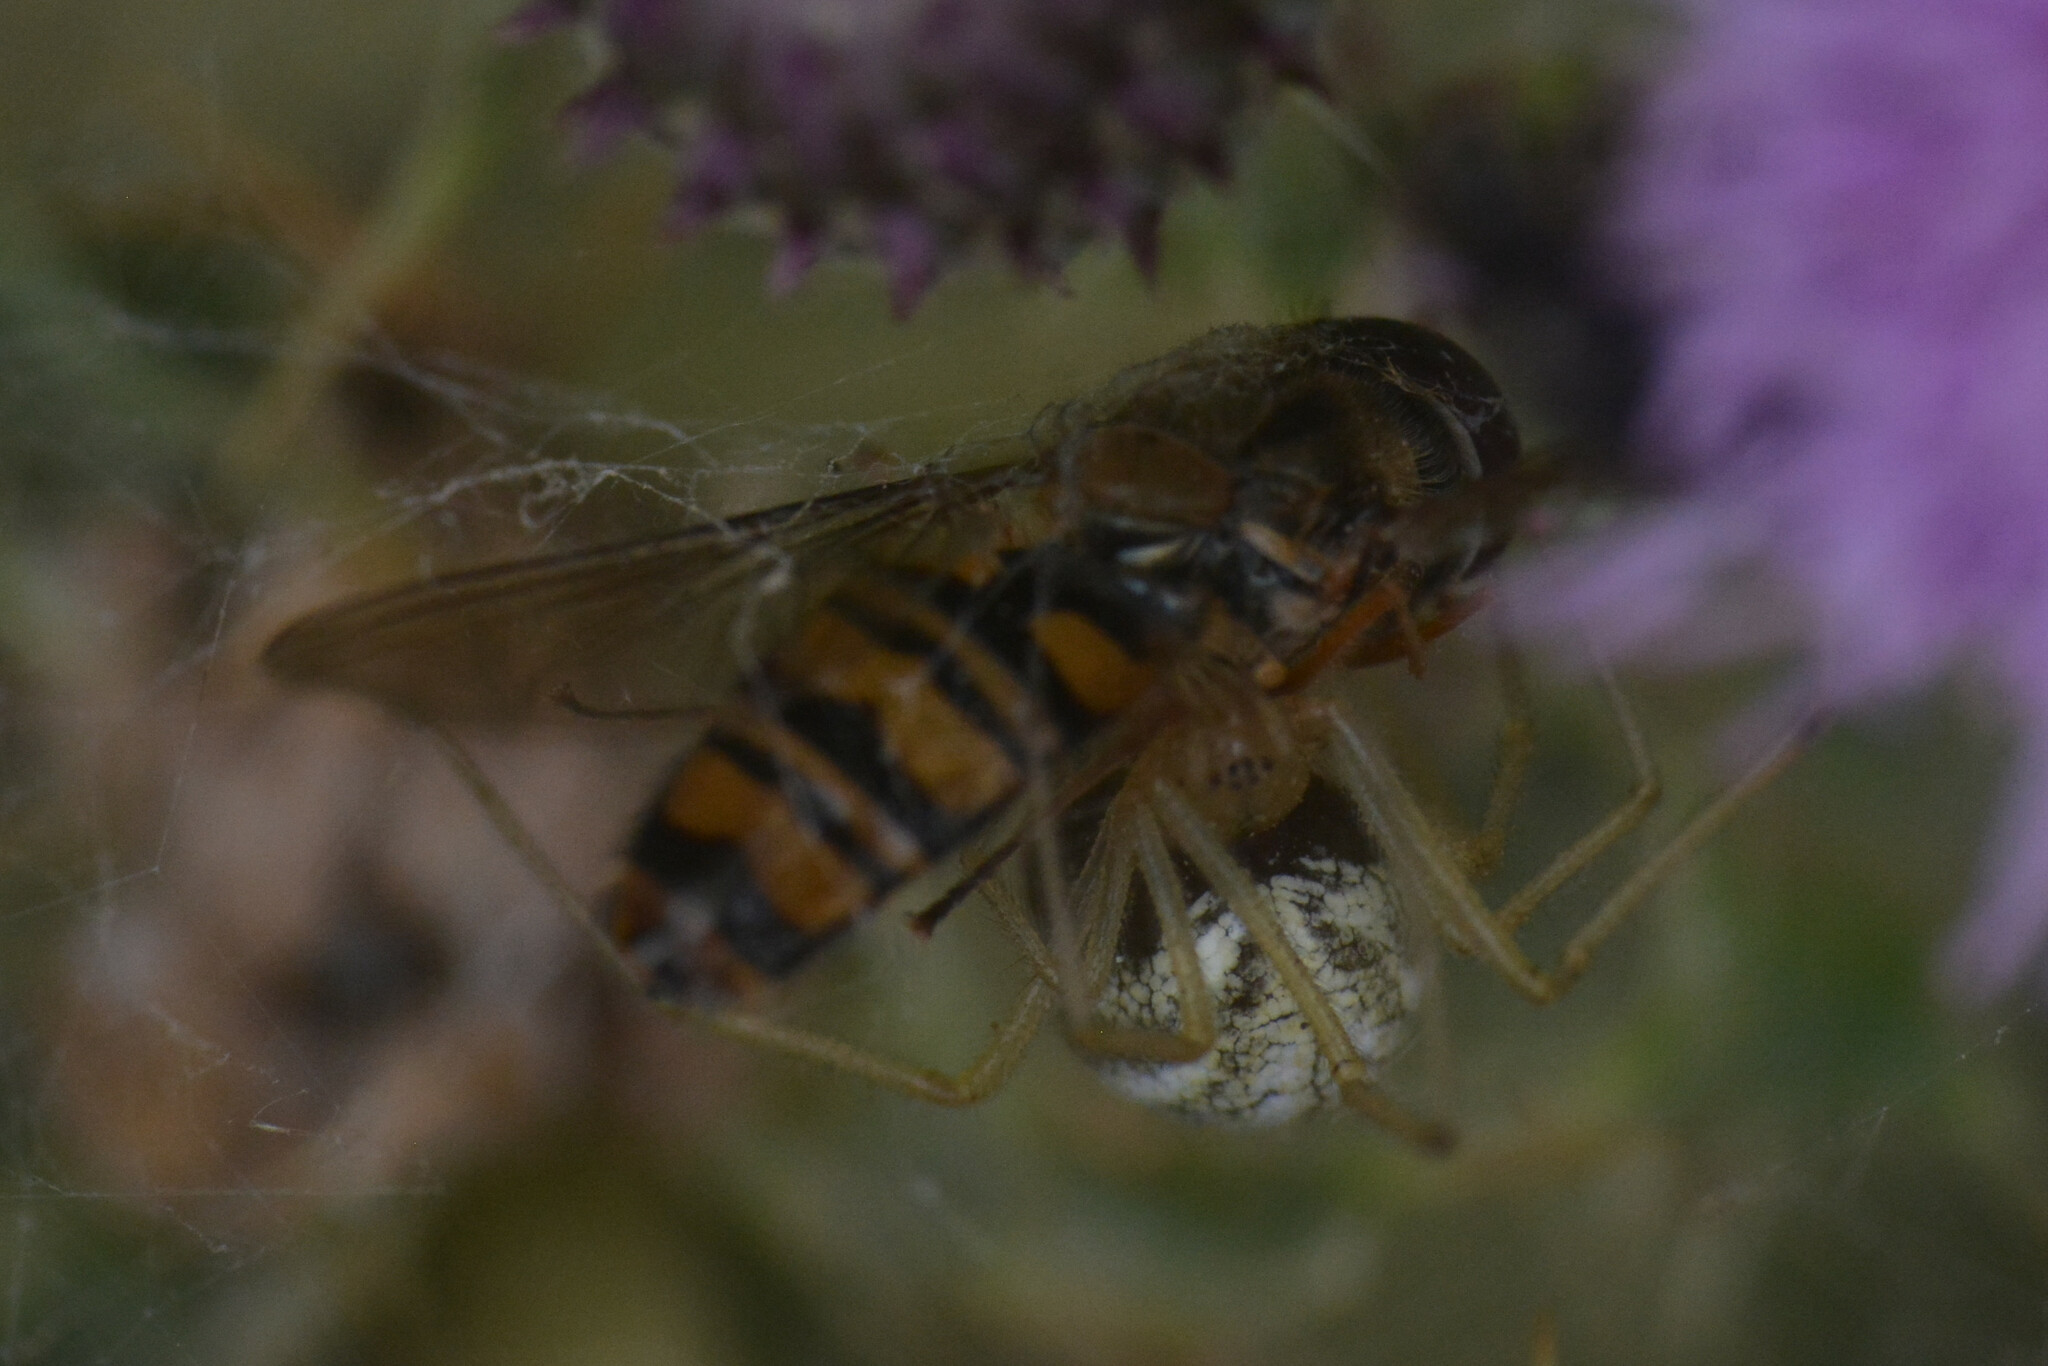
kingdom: Animalia
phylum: Arthropoda
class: Insecta
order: Diptera
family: Syrphidae
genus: Episyrphus
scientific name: Episyrphus balteatus
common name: Marmalade hoverfly
